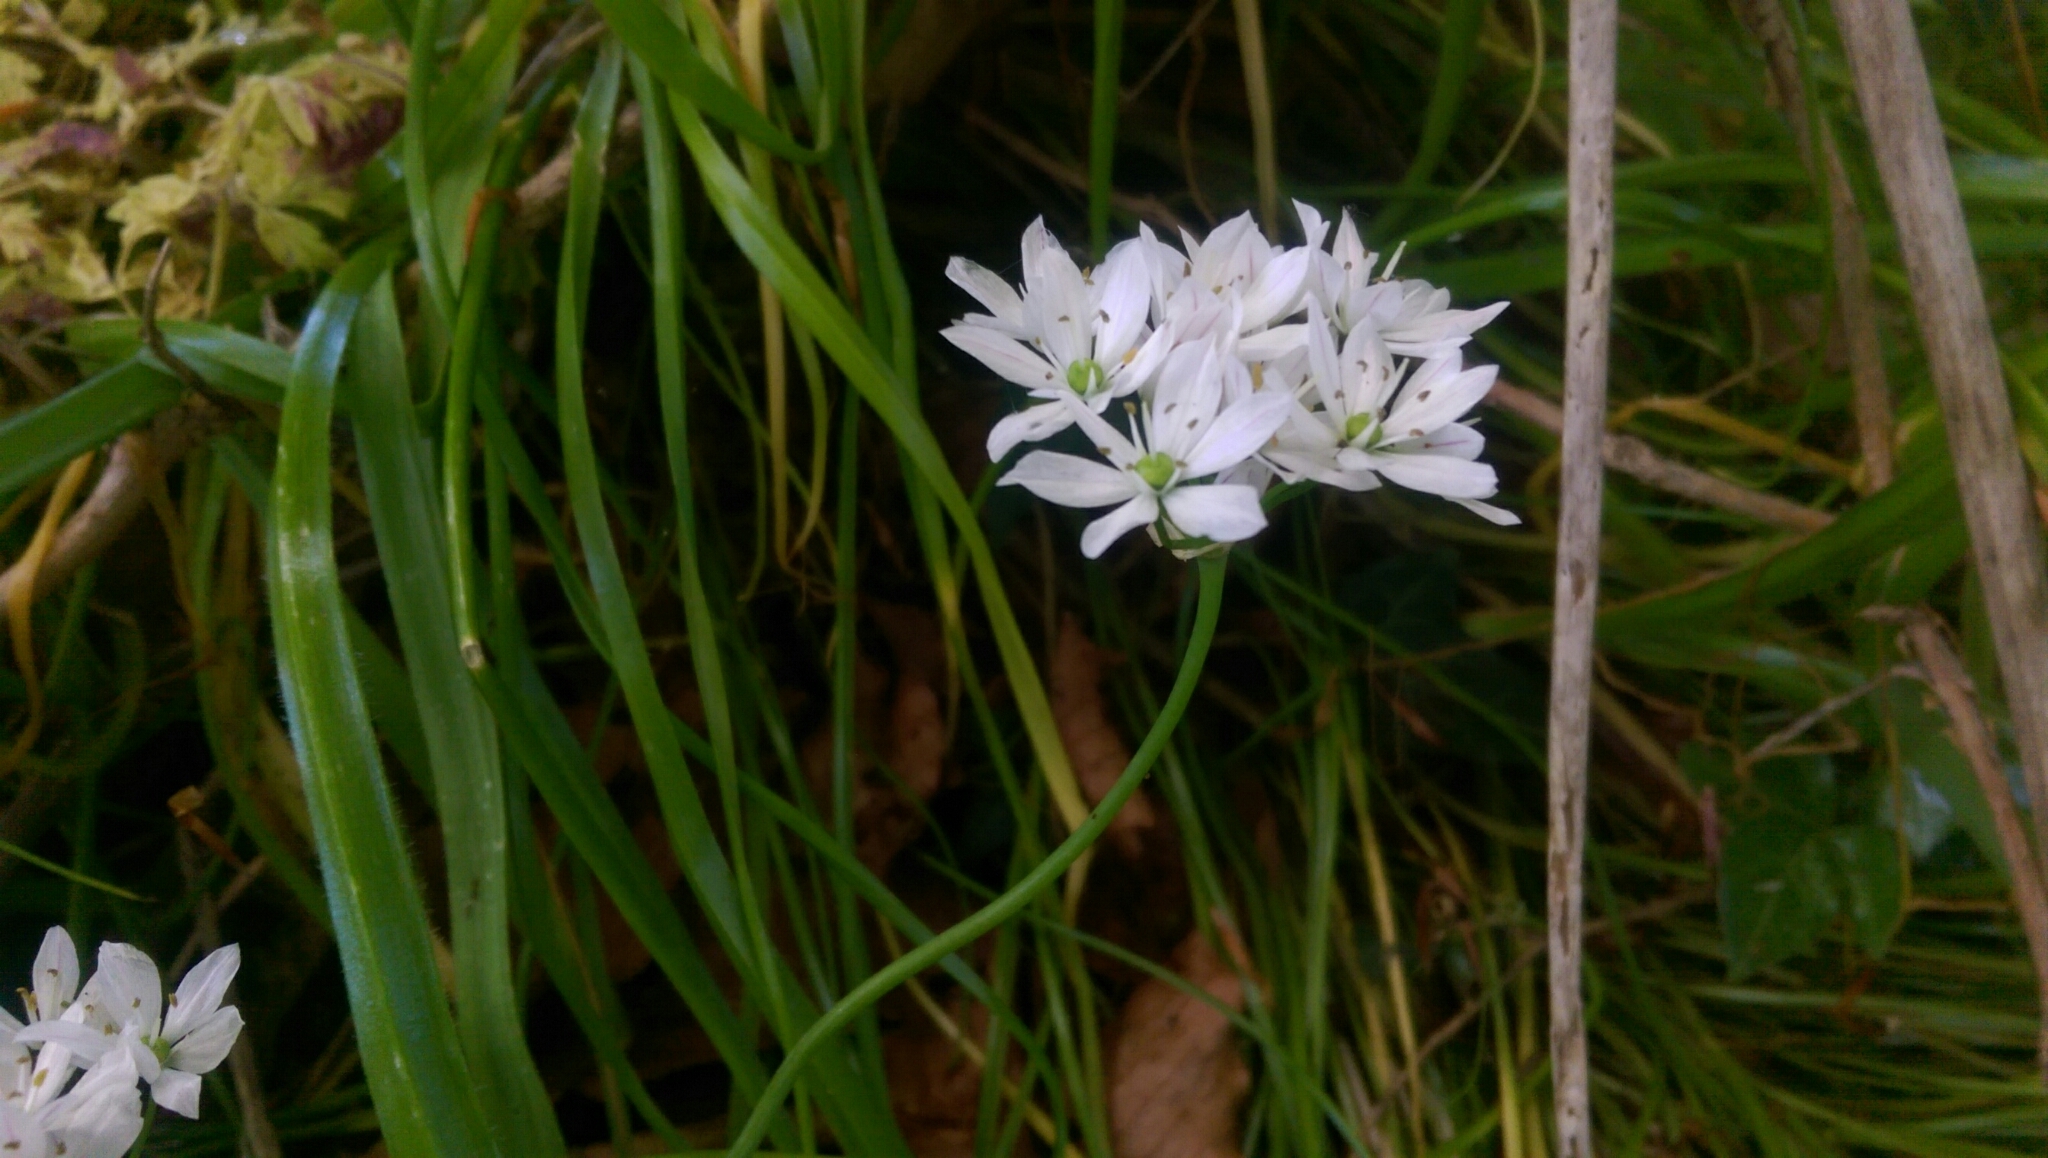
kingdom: Plantae
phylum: Tracheophyta
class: Liliopsida
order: Asparagales
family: Amaryllidaceae
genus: Allium
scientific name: Allium subhirsutum
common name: Hairy garlic
